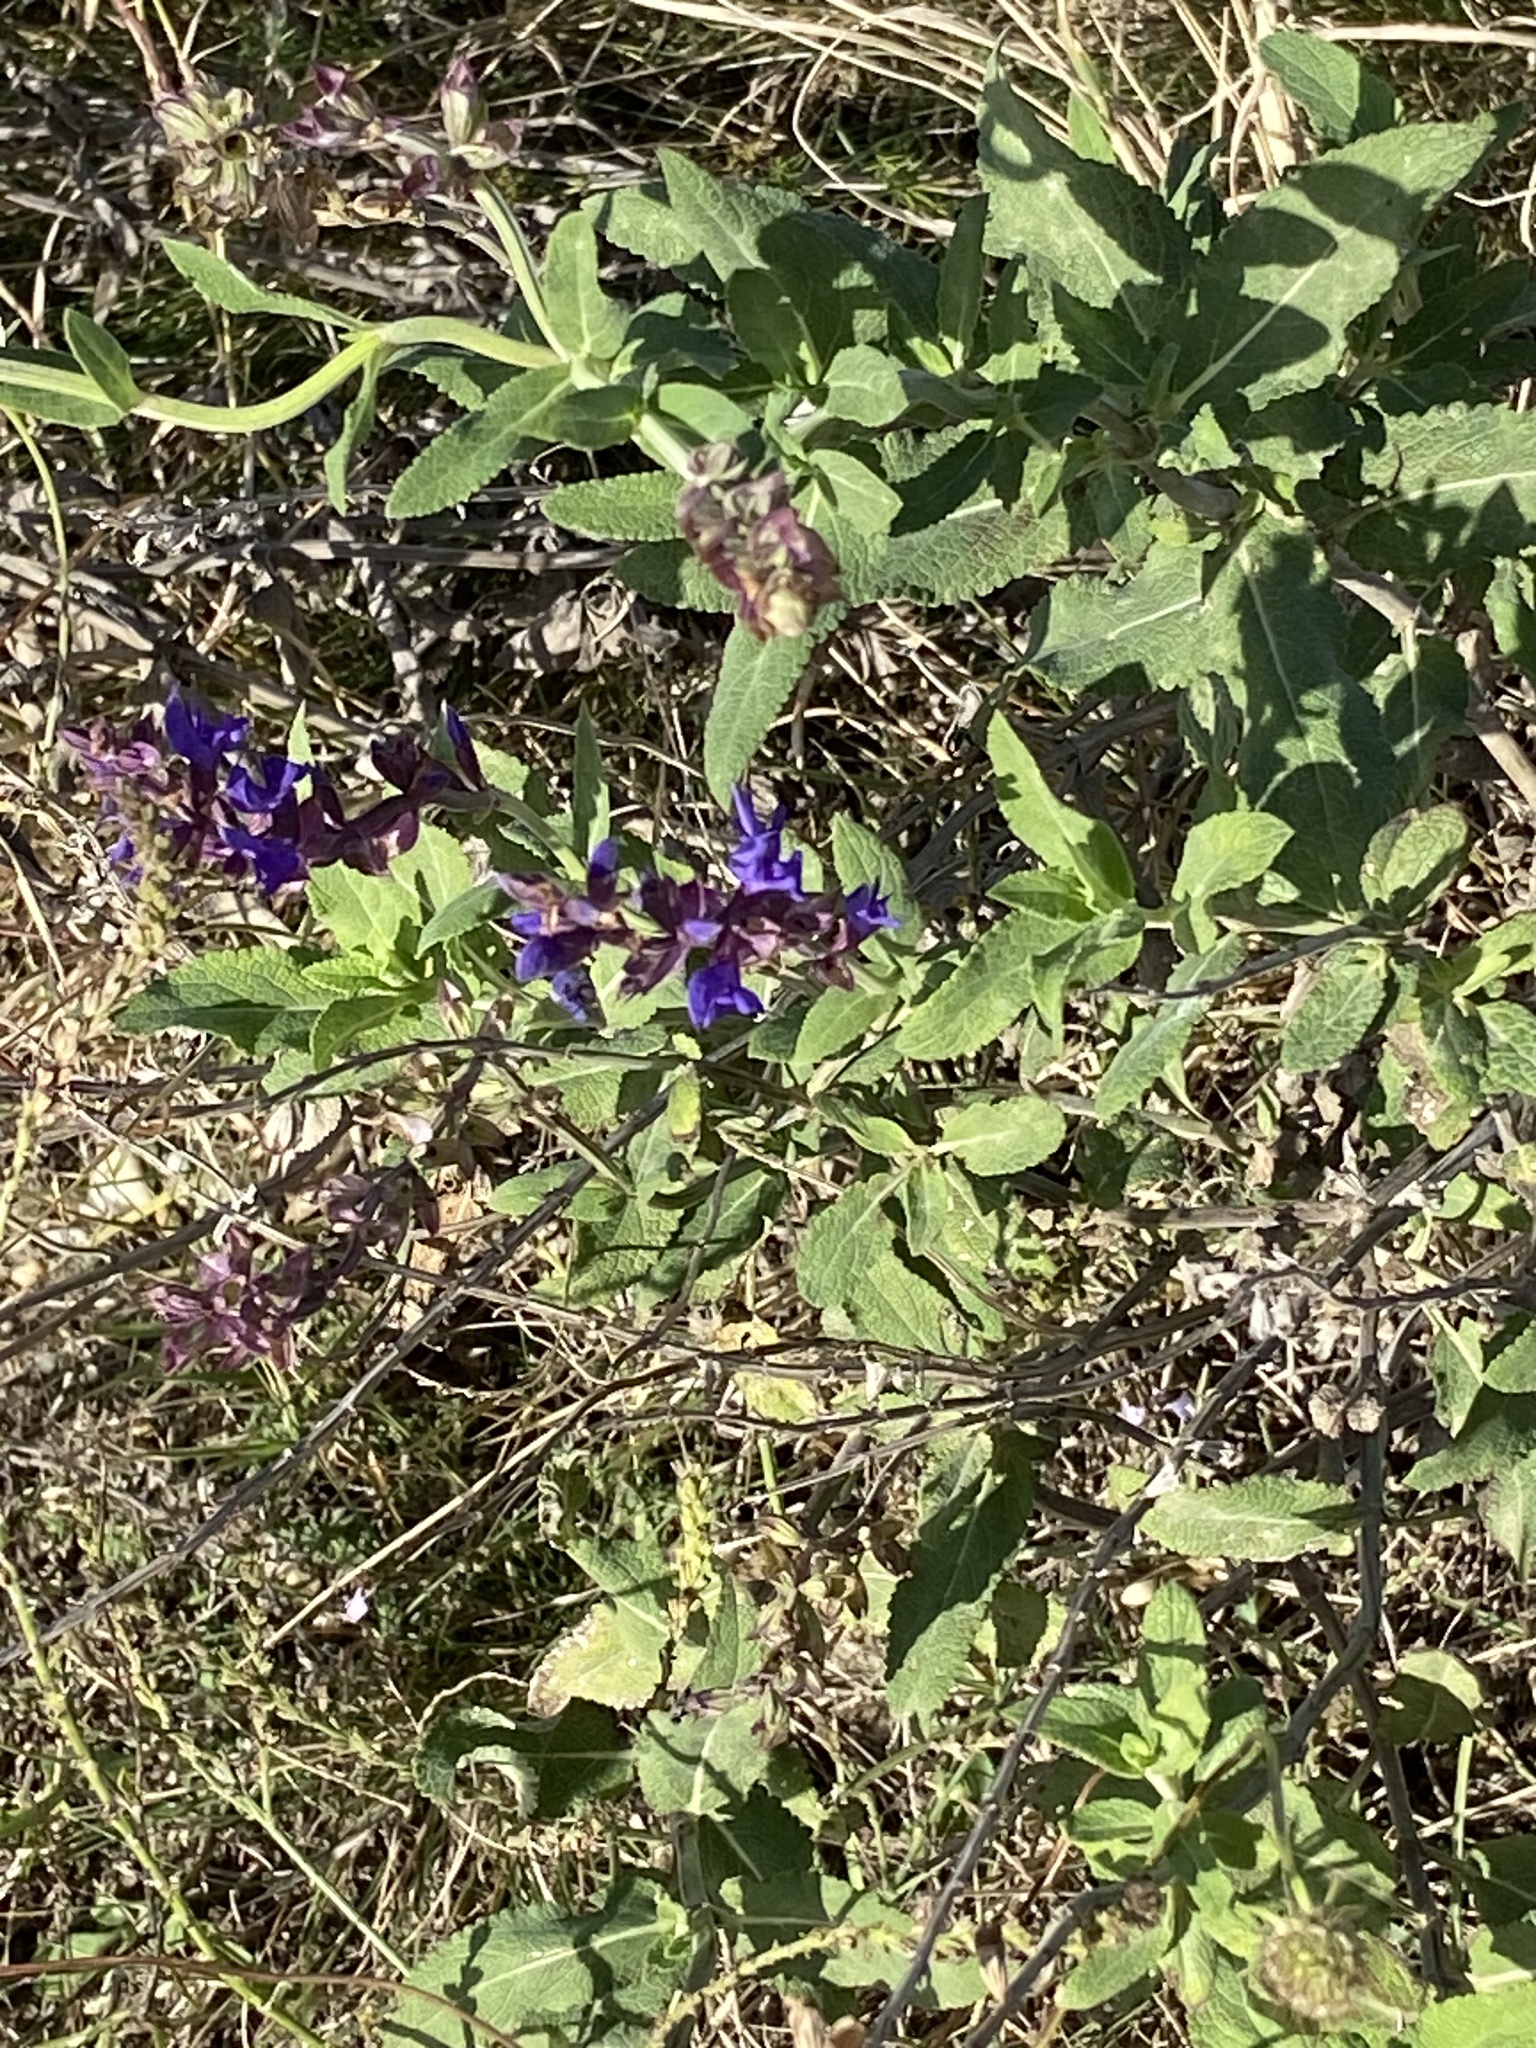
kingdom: Plantae
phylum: Tracheophyta
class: Magnoliopsida
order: Lamiales
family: Lamiaceae
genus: Salvia
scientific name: Salvia nemorosa
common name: Balkan clary
